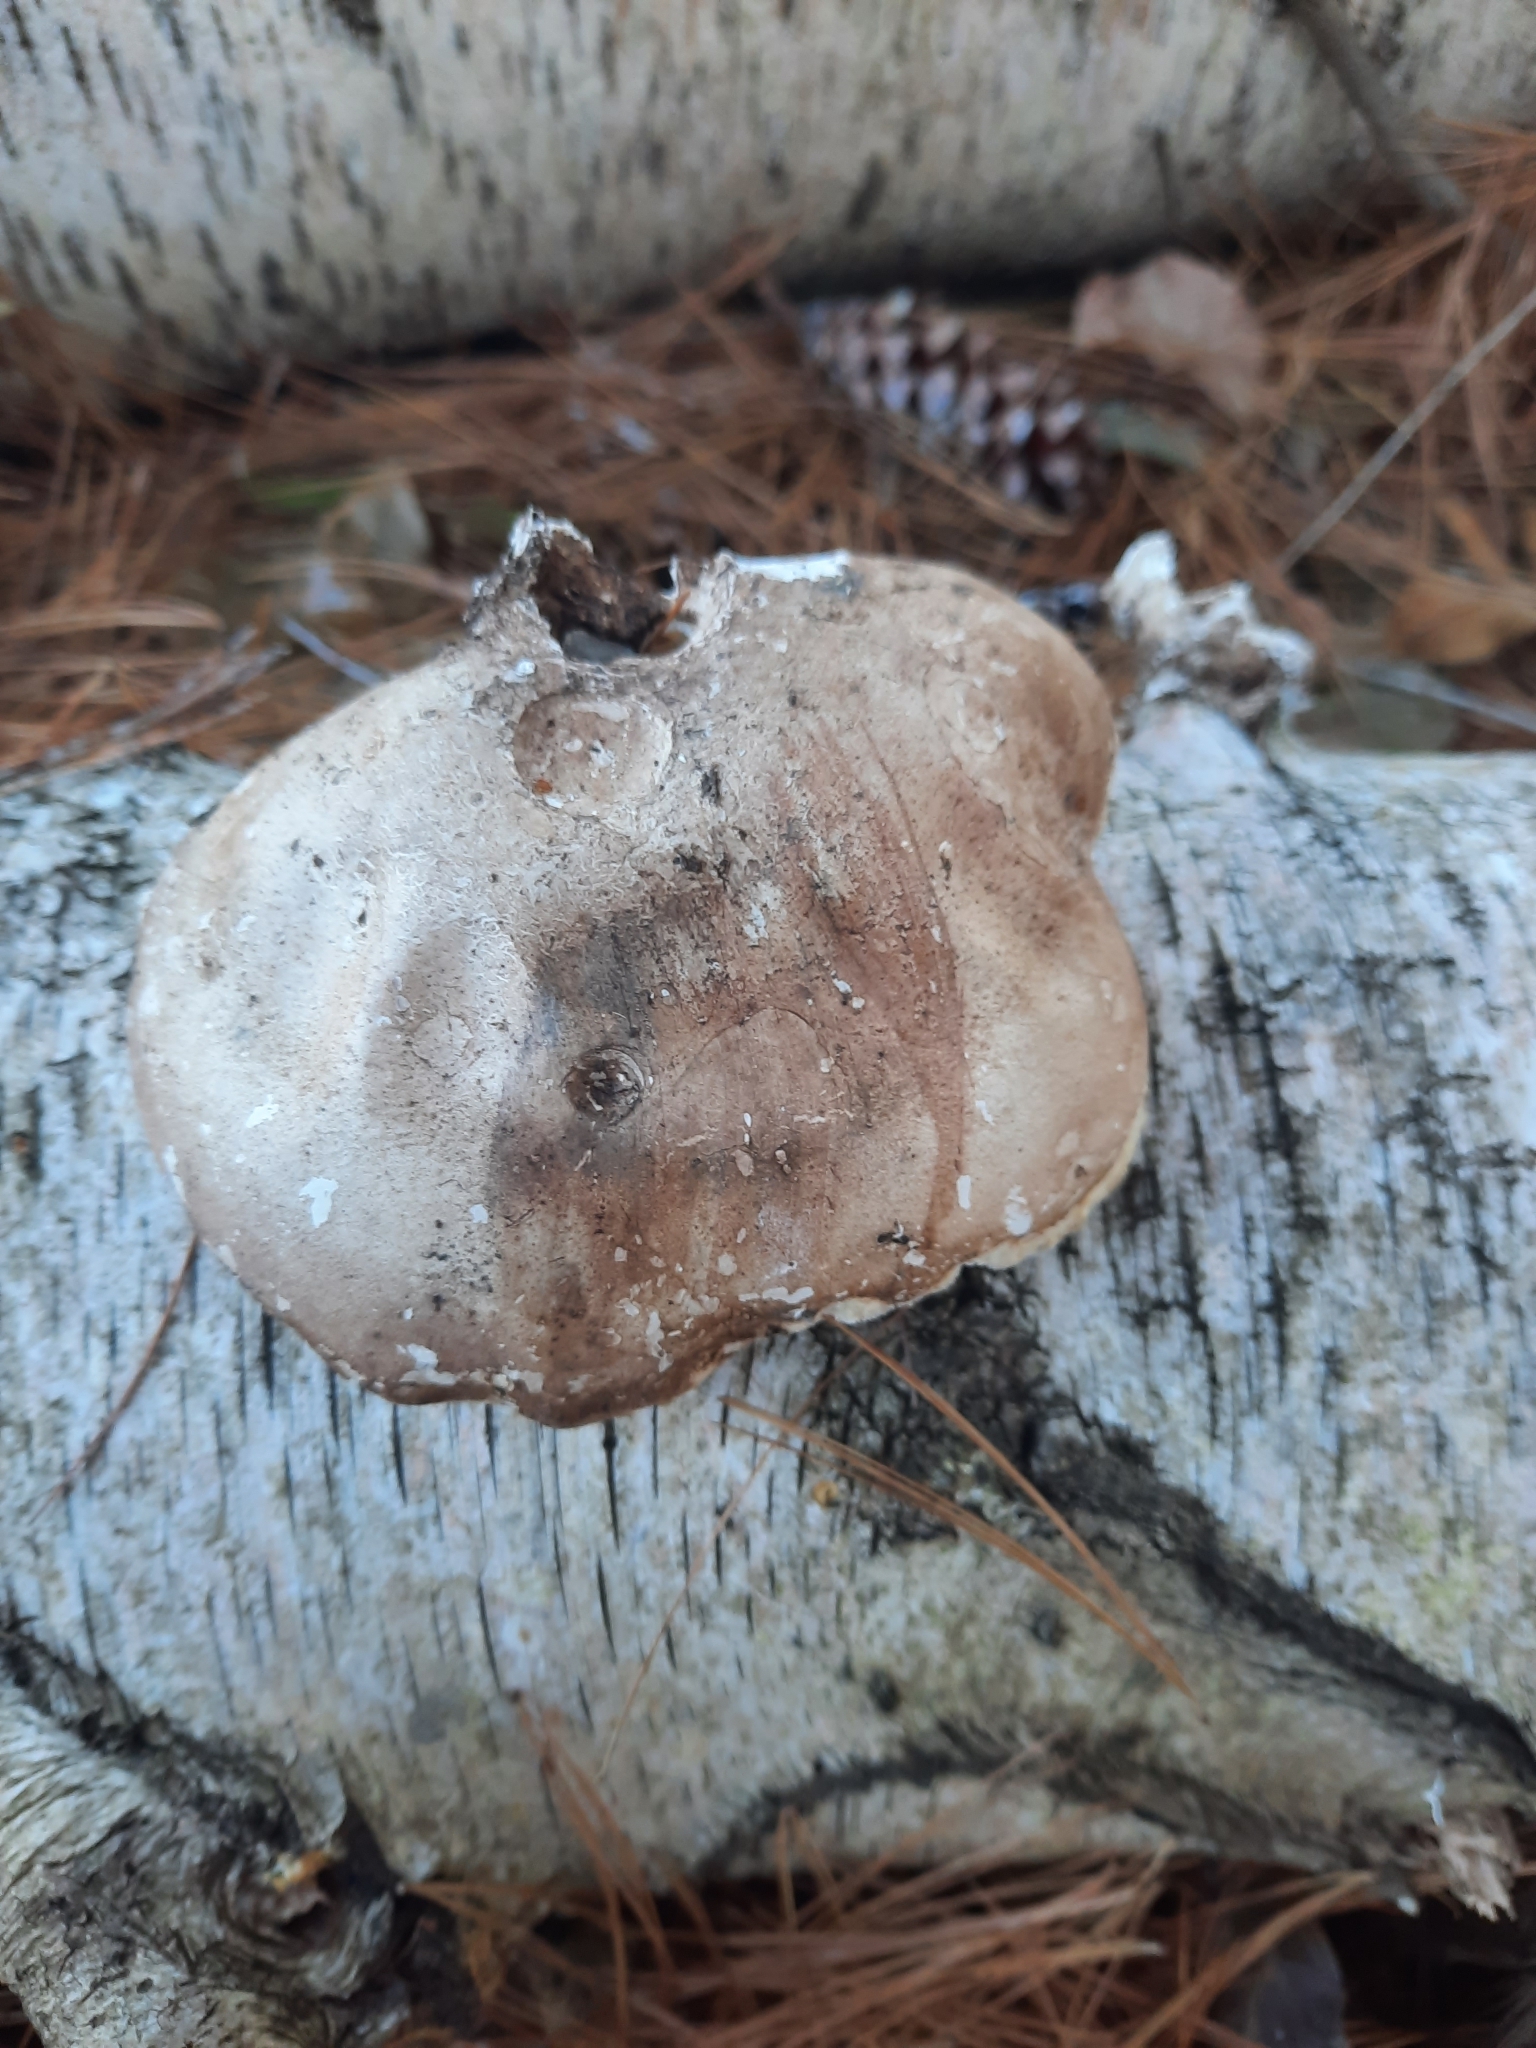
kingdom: Fungi
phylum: Basidiomycota
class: Agaricomycetes
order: Polyporales
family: Fomitopsidaceae
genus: Fomitopsis
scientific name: Fomitopsis betulina
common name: Birch polypore
